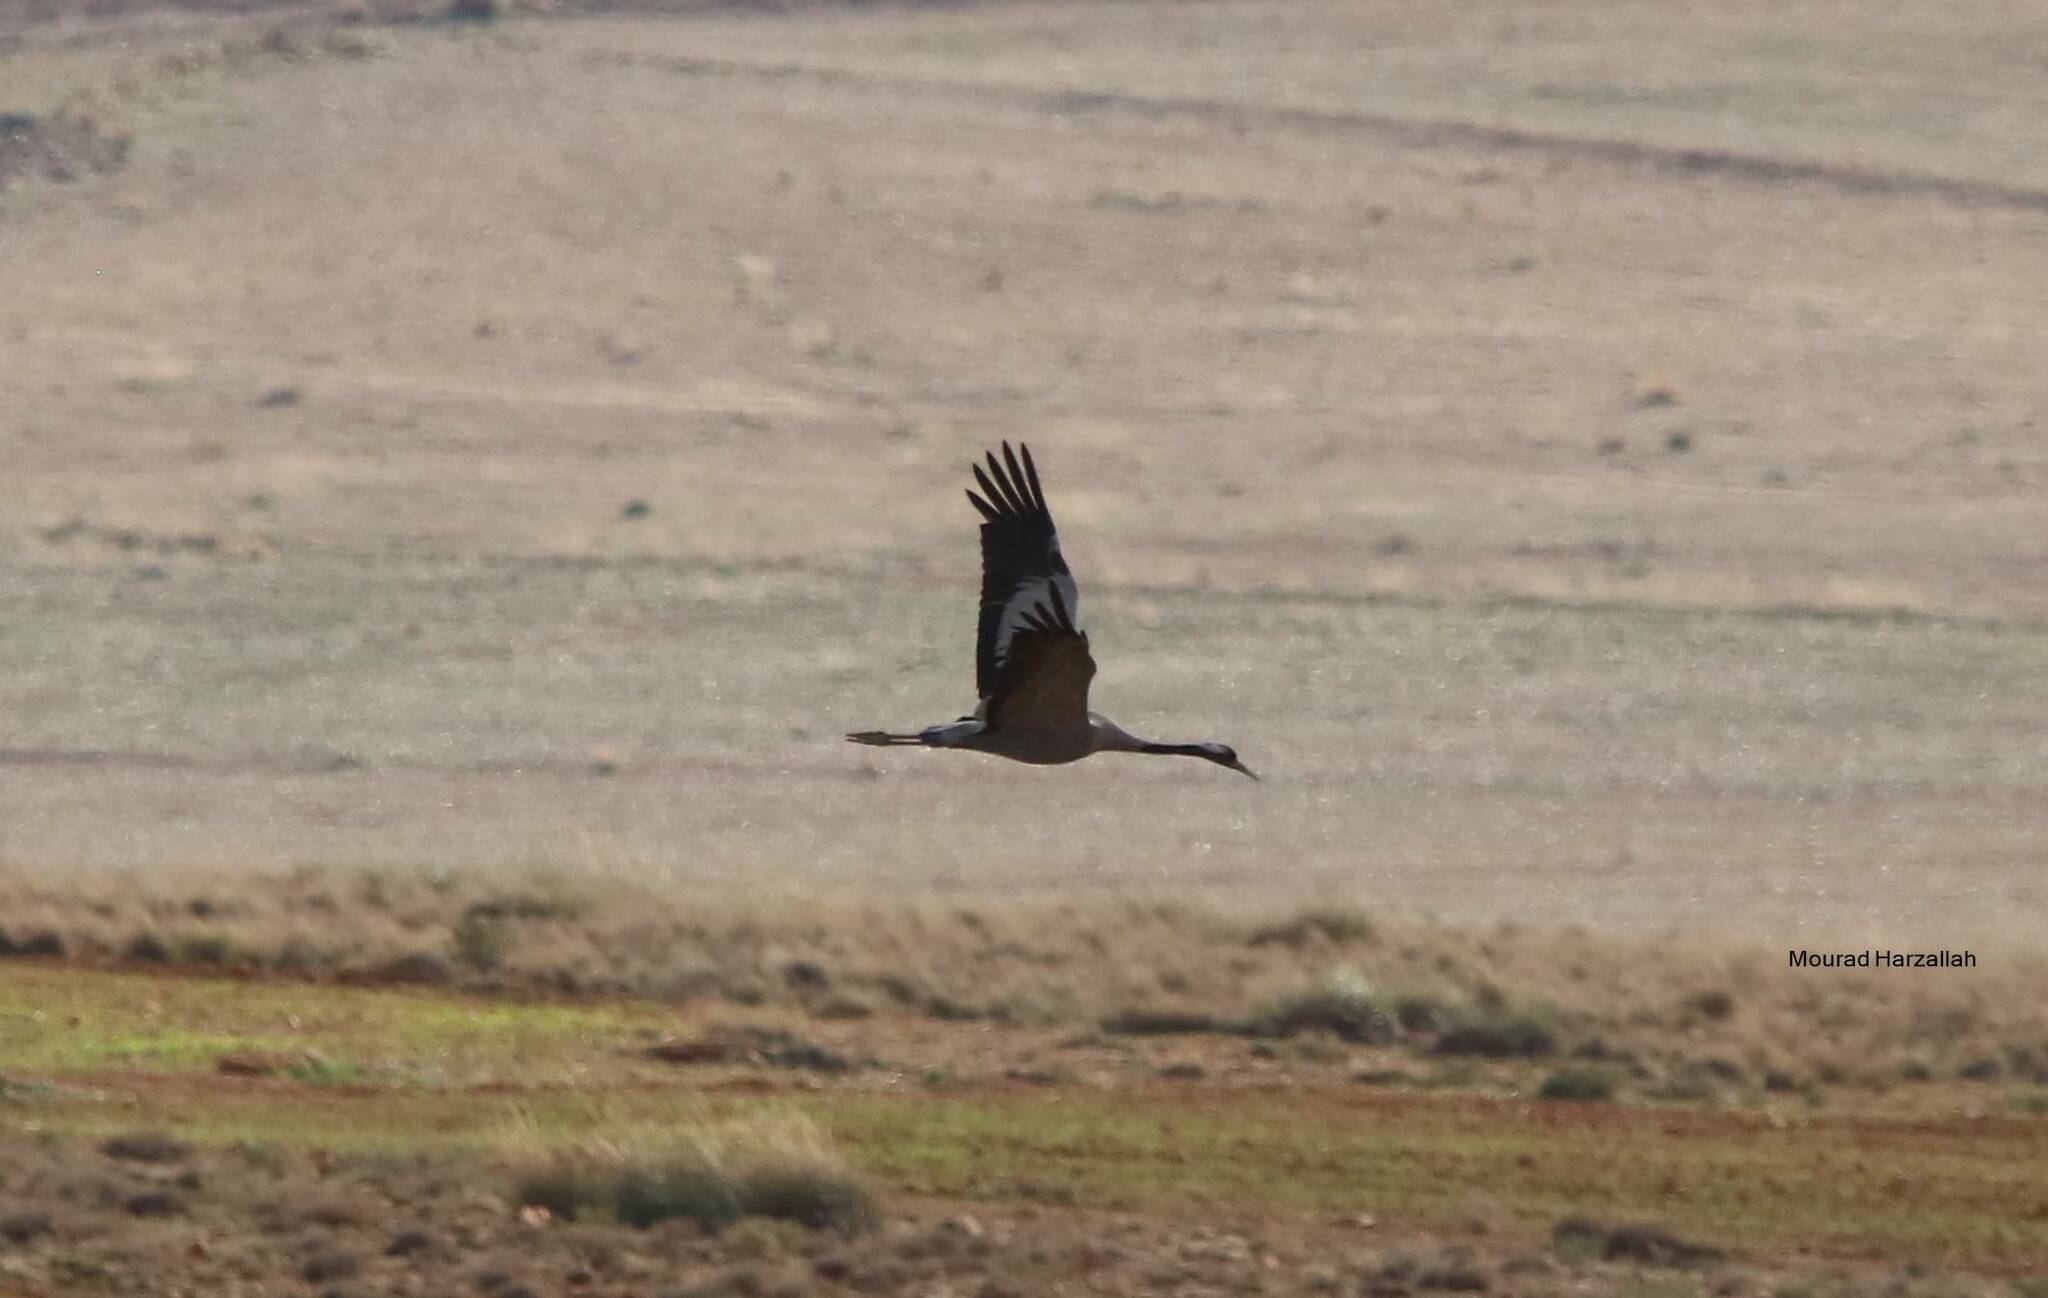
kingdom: Animalia
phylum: Chordata
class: Aves
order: Gruiformes
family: Gruidae
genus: Grus
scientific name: Grus grus
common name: Common crane
